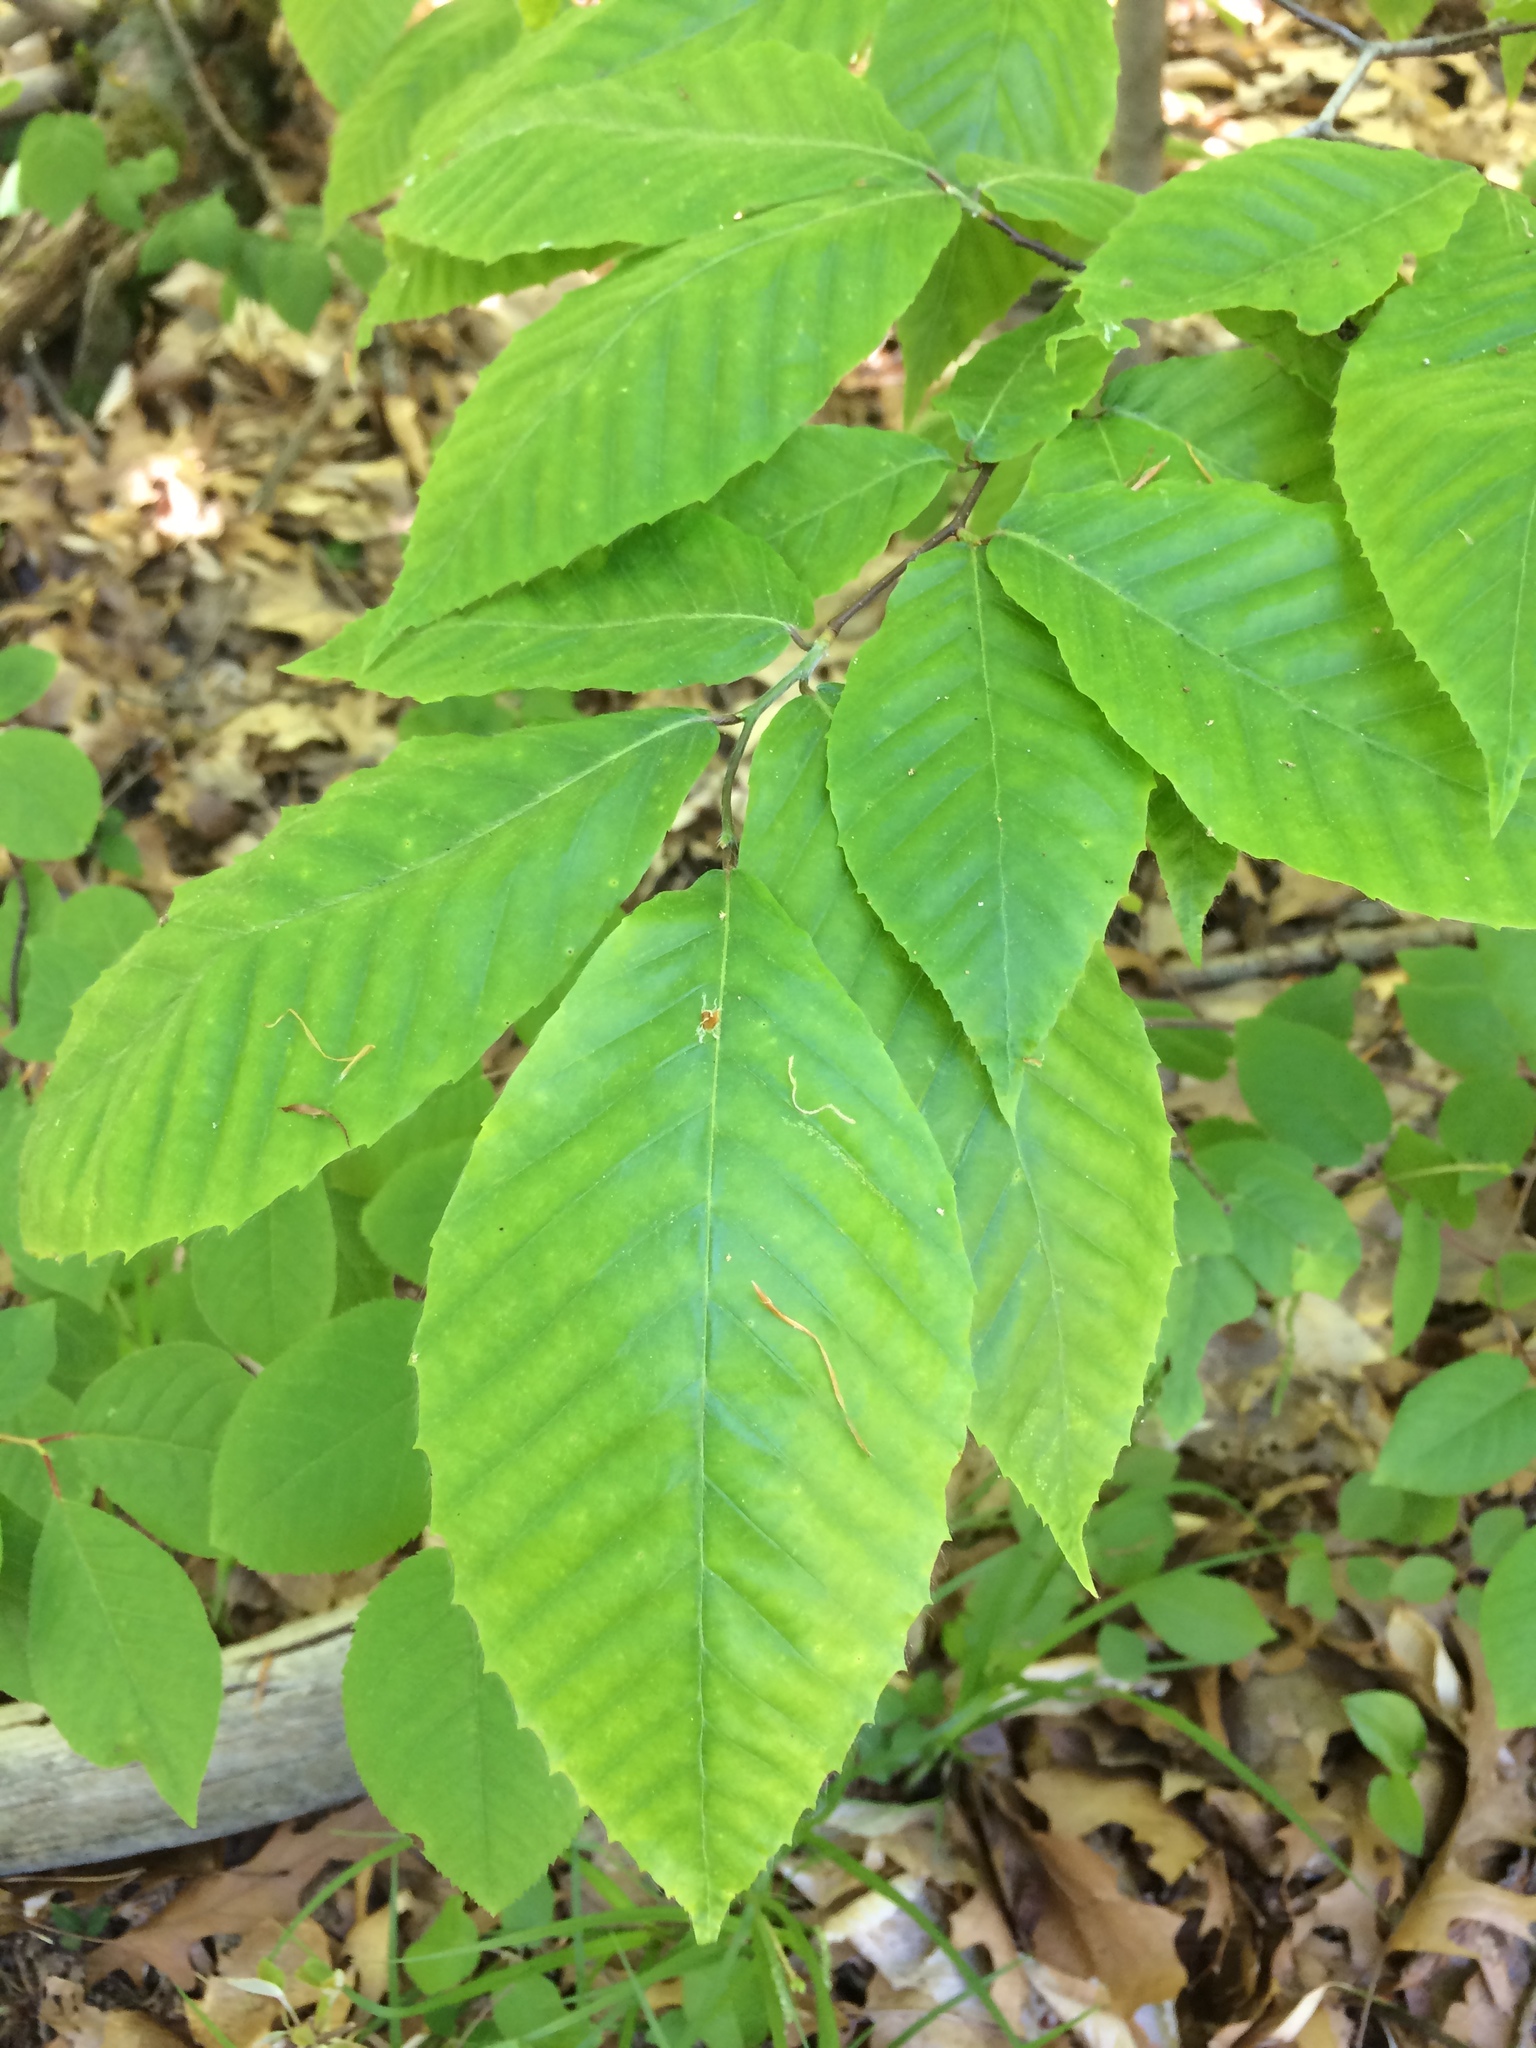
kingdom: Plantae
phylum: Tracheophyta
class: Magnoliopsida
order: Fagales
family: Fagaceae
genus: Fagus
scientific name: Fagus grandifolia
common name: American beech
